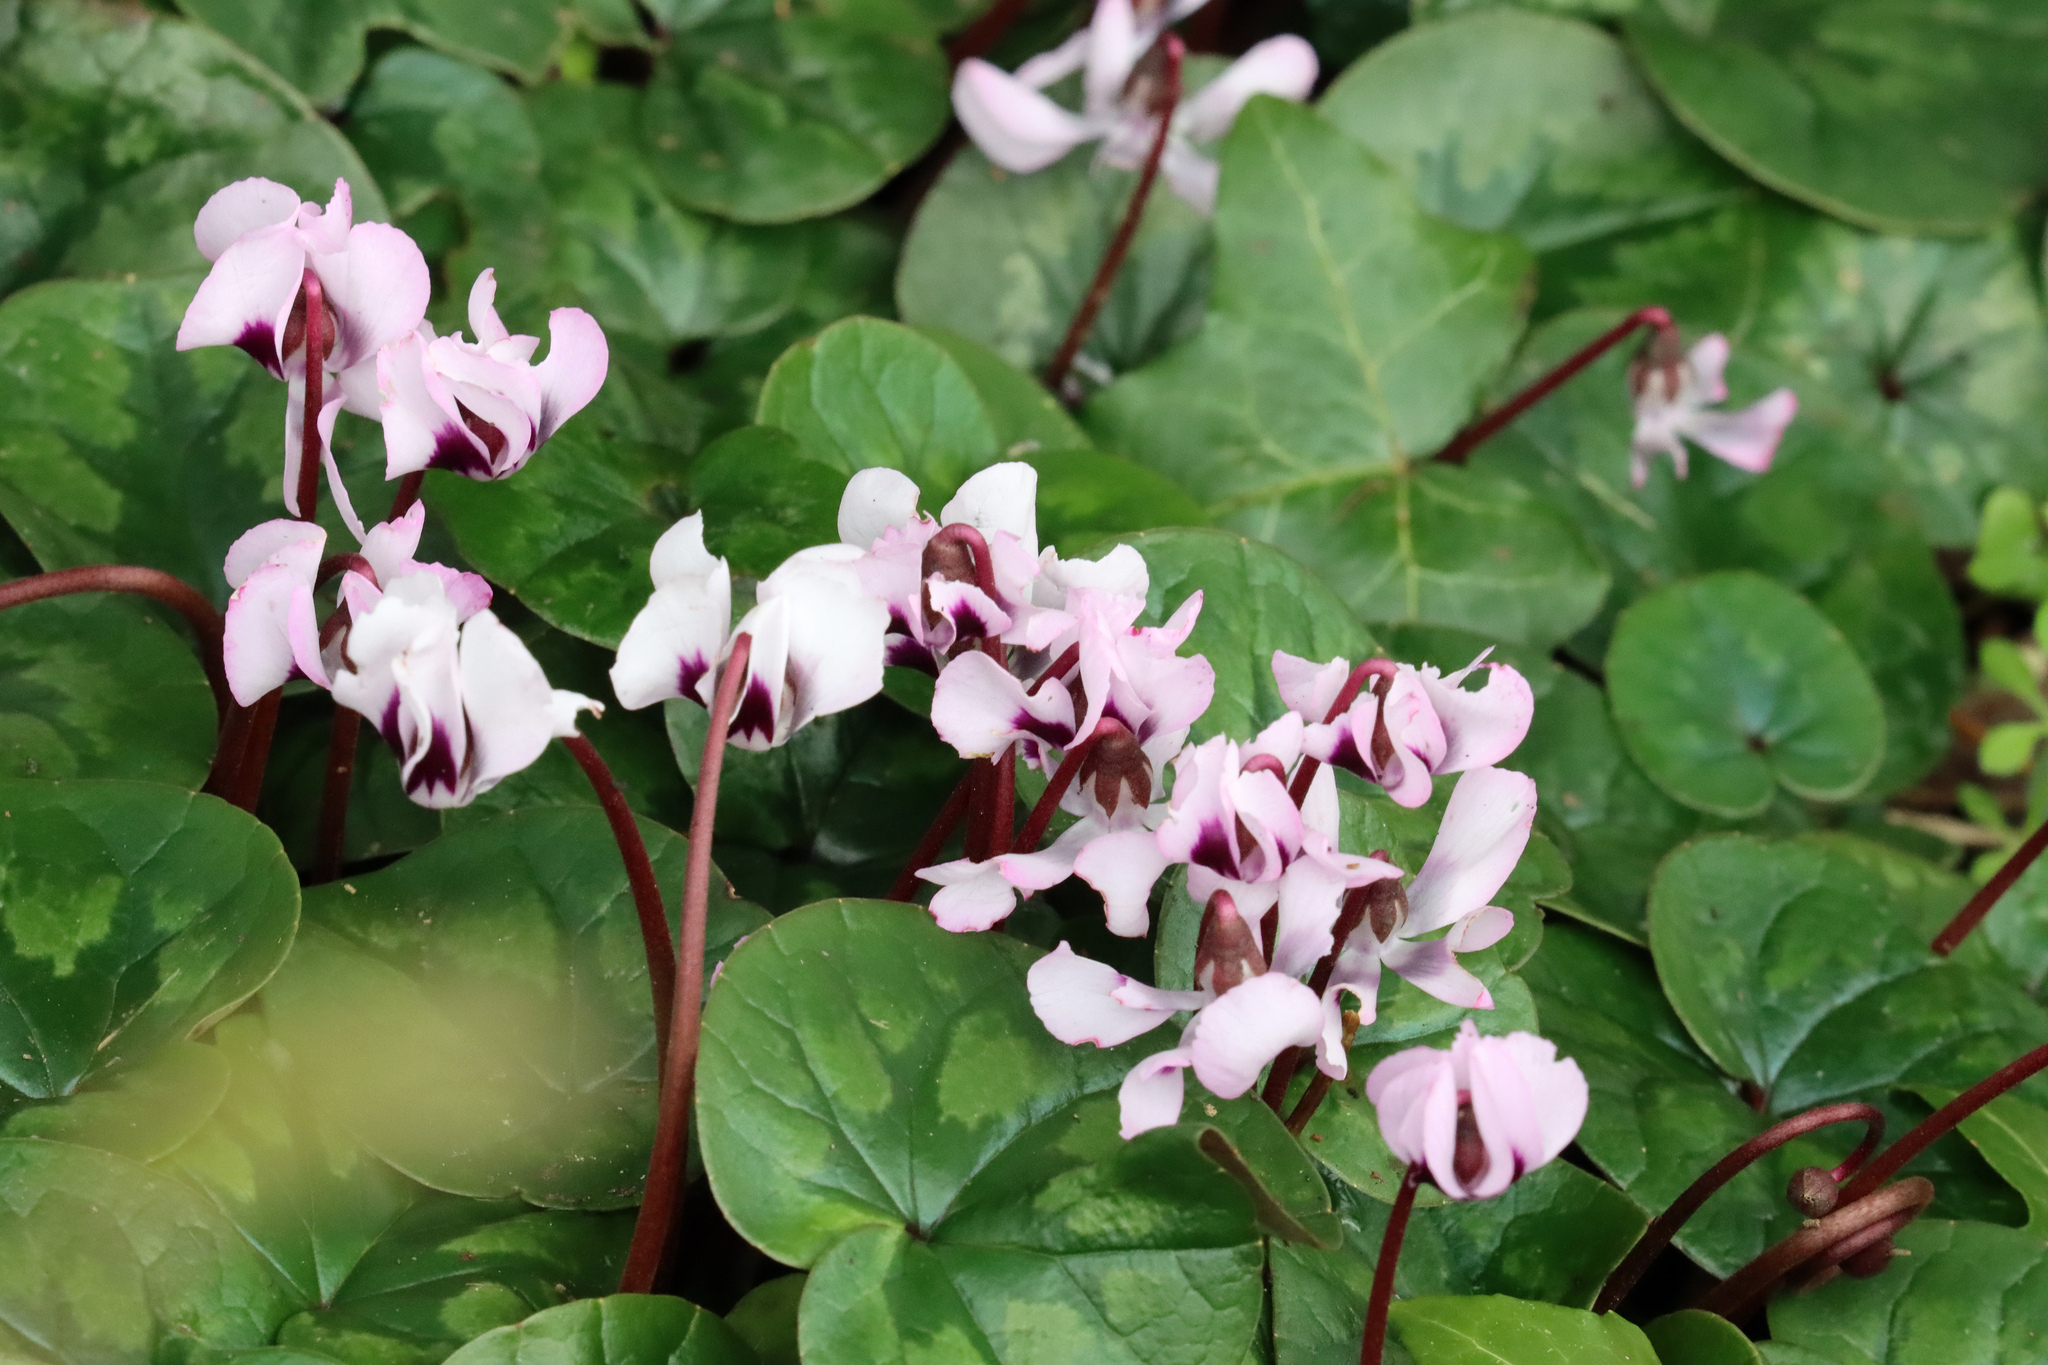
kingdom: Plantae
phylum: Tracheophyta
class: Magnoliopsida
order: Ericales
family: Primulaceae
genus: Cyclamen
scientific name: Cyclamen coum
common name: Eastern sowbread
